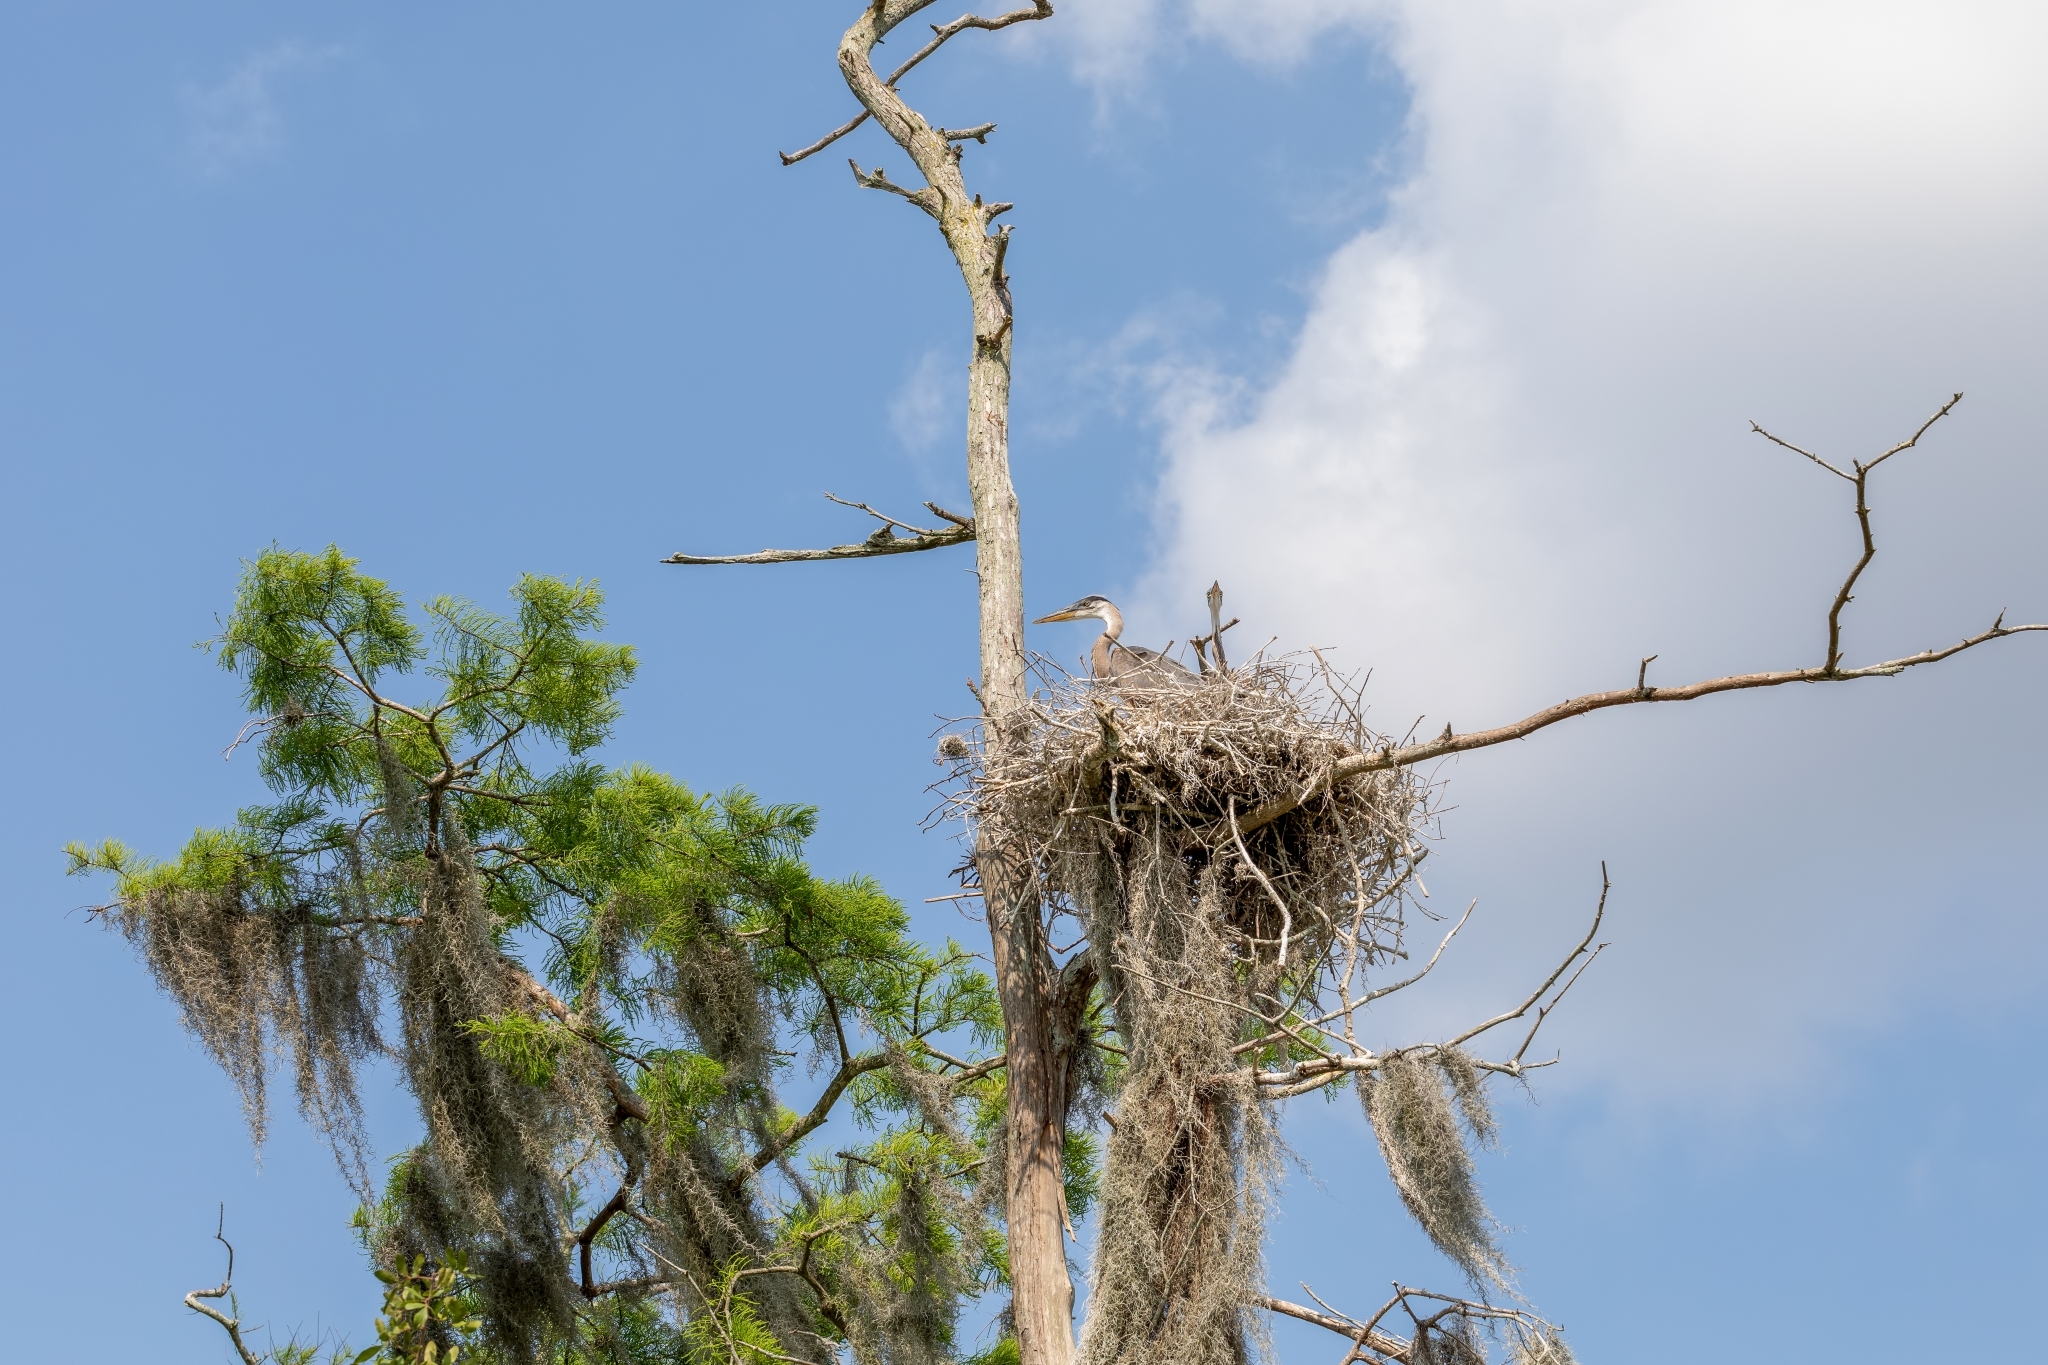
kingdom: Animalia
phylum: Chordata
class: Aves
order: Pelecaniformes
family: Ardeidae
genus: Ardea
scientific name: Ardea herodias
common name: Great blue heron
